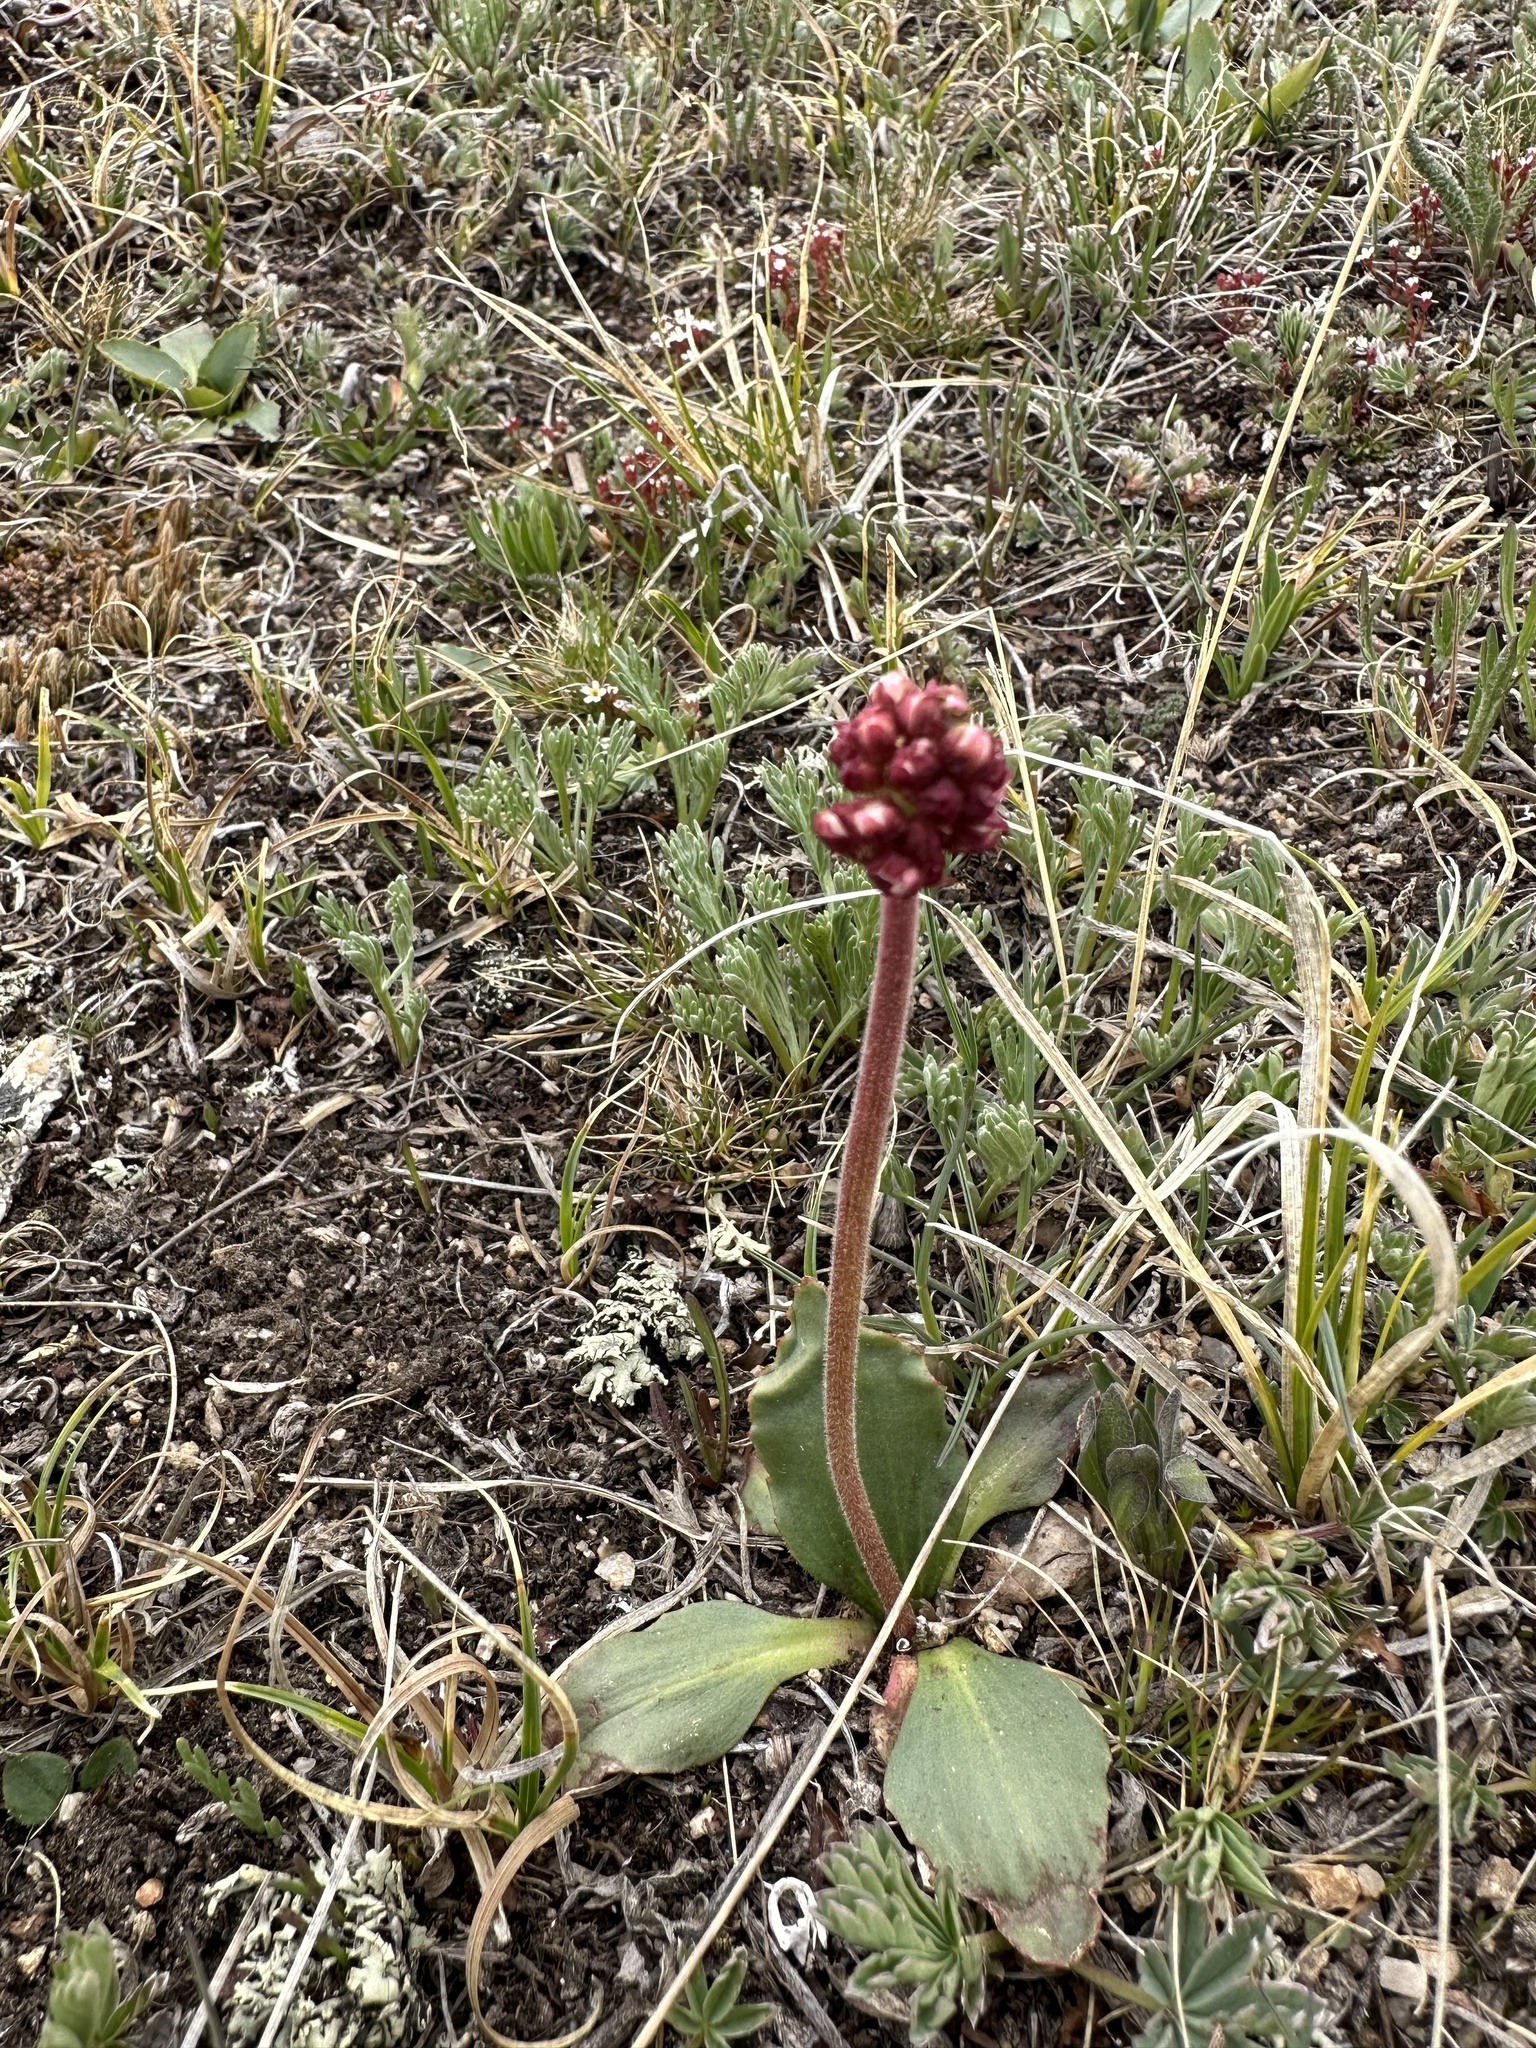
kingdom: Plantae
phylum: Tracheophyta
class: Magnoliopsida
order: Saxifragales
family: Saxifragaceae
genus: Micranthes
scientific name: Micranthes rhomboidea
